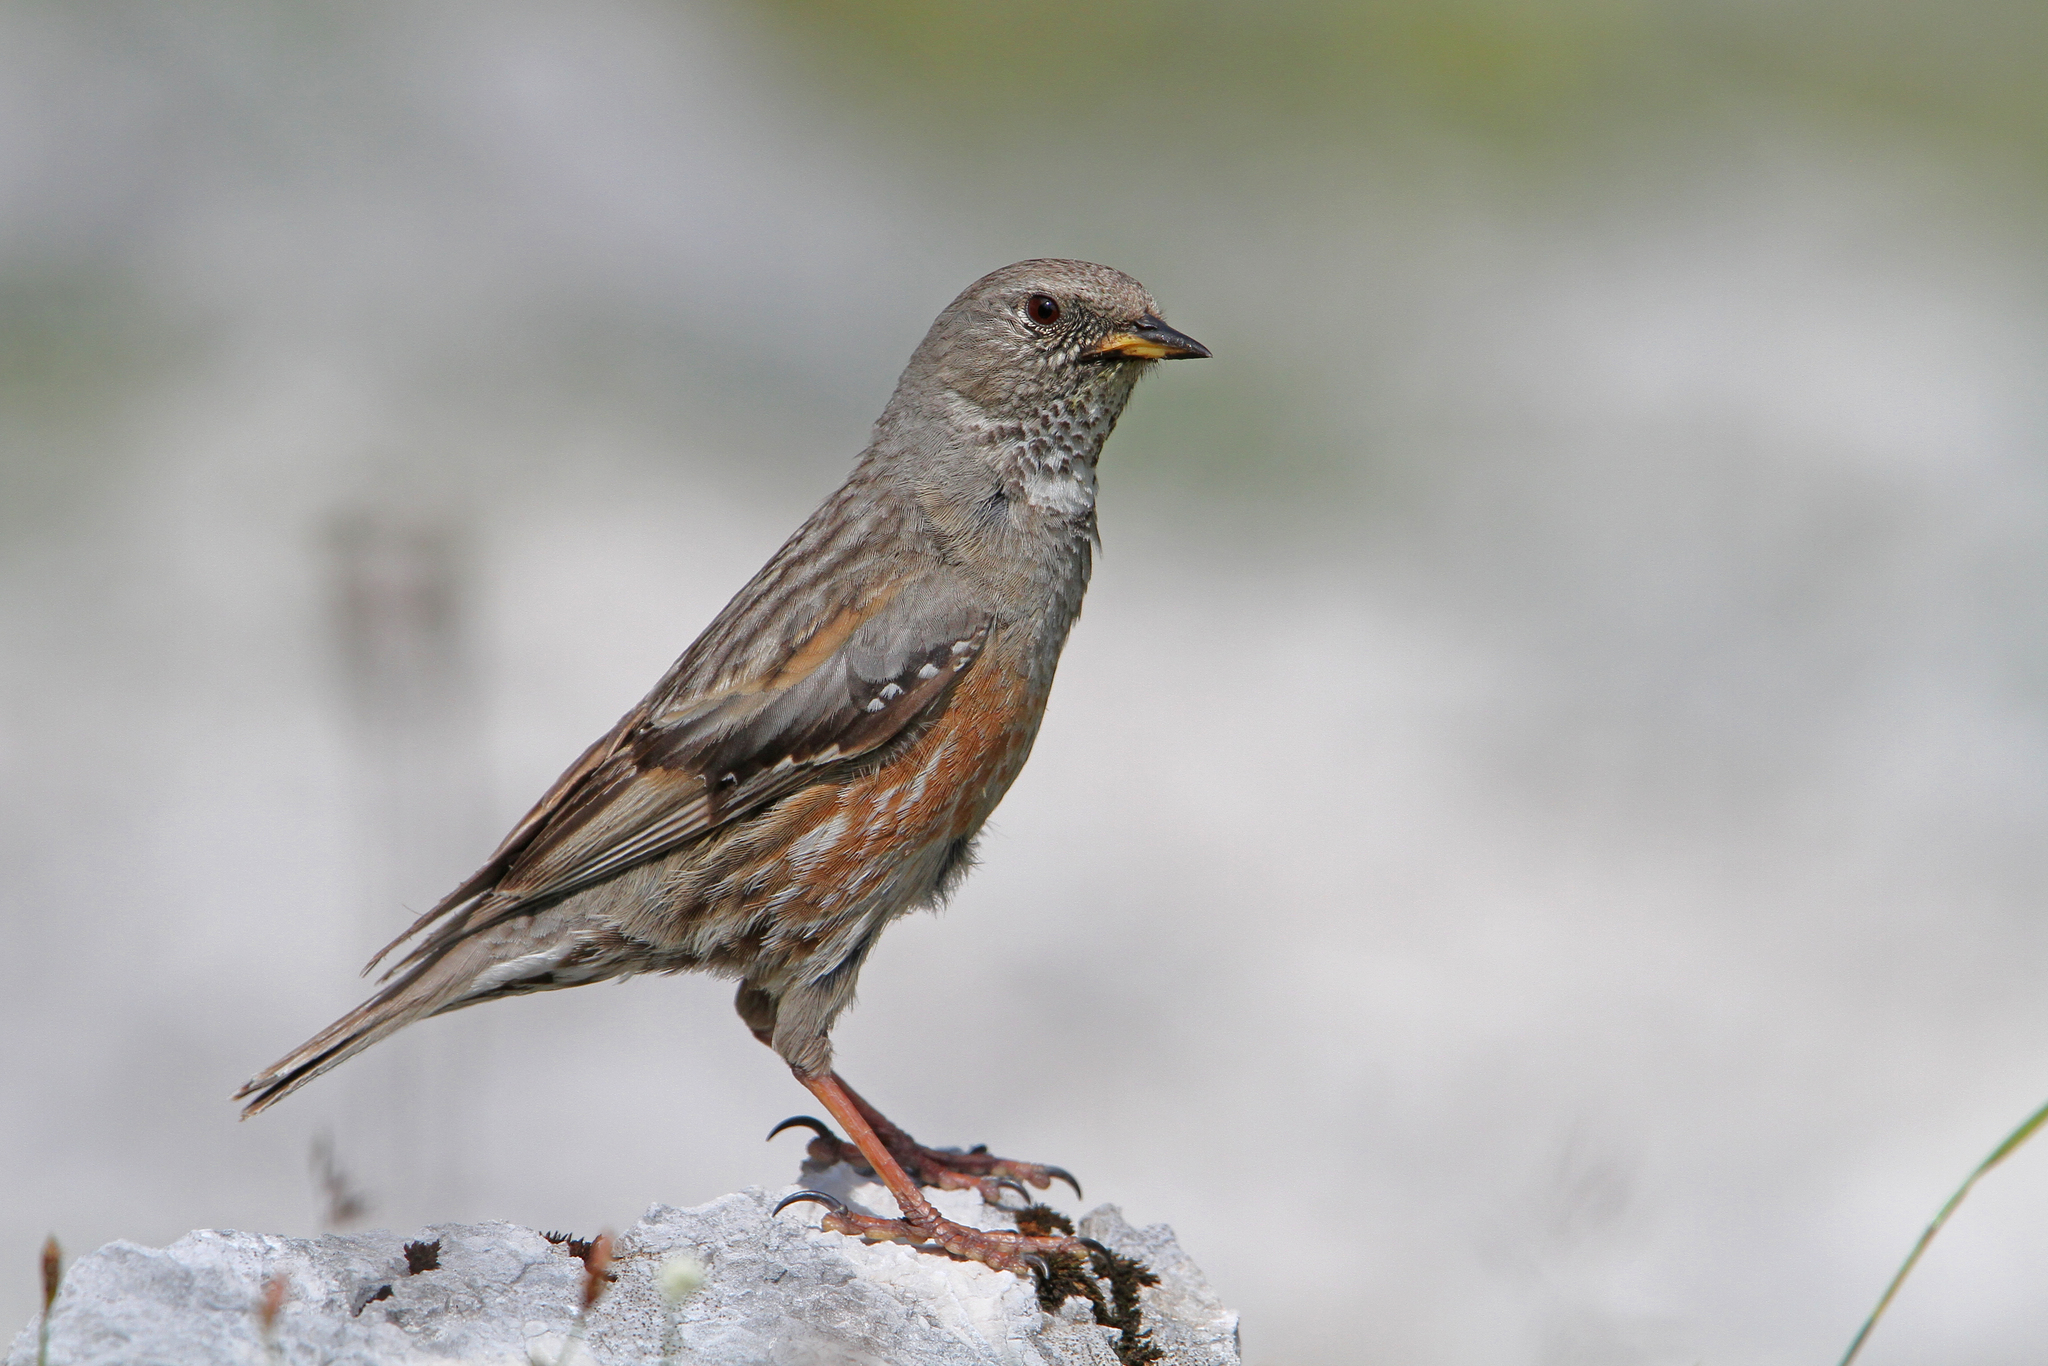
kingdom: Animalia
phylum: Chordata
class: Aves
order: Passeriformes
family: Prunellidae
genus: Prunella
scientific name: Prunella collaris
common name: Alpine accentor
